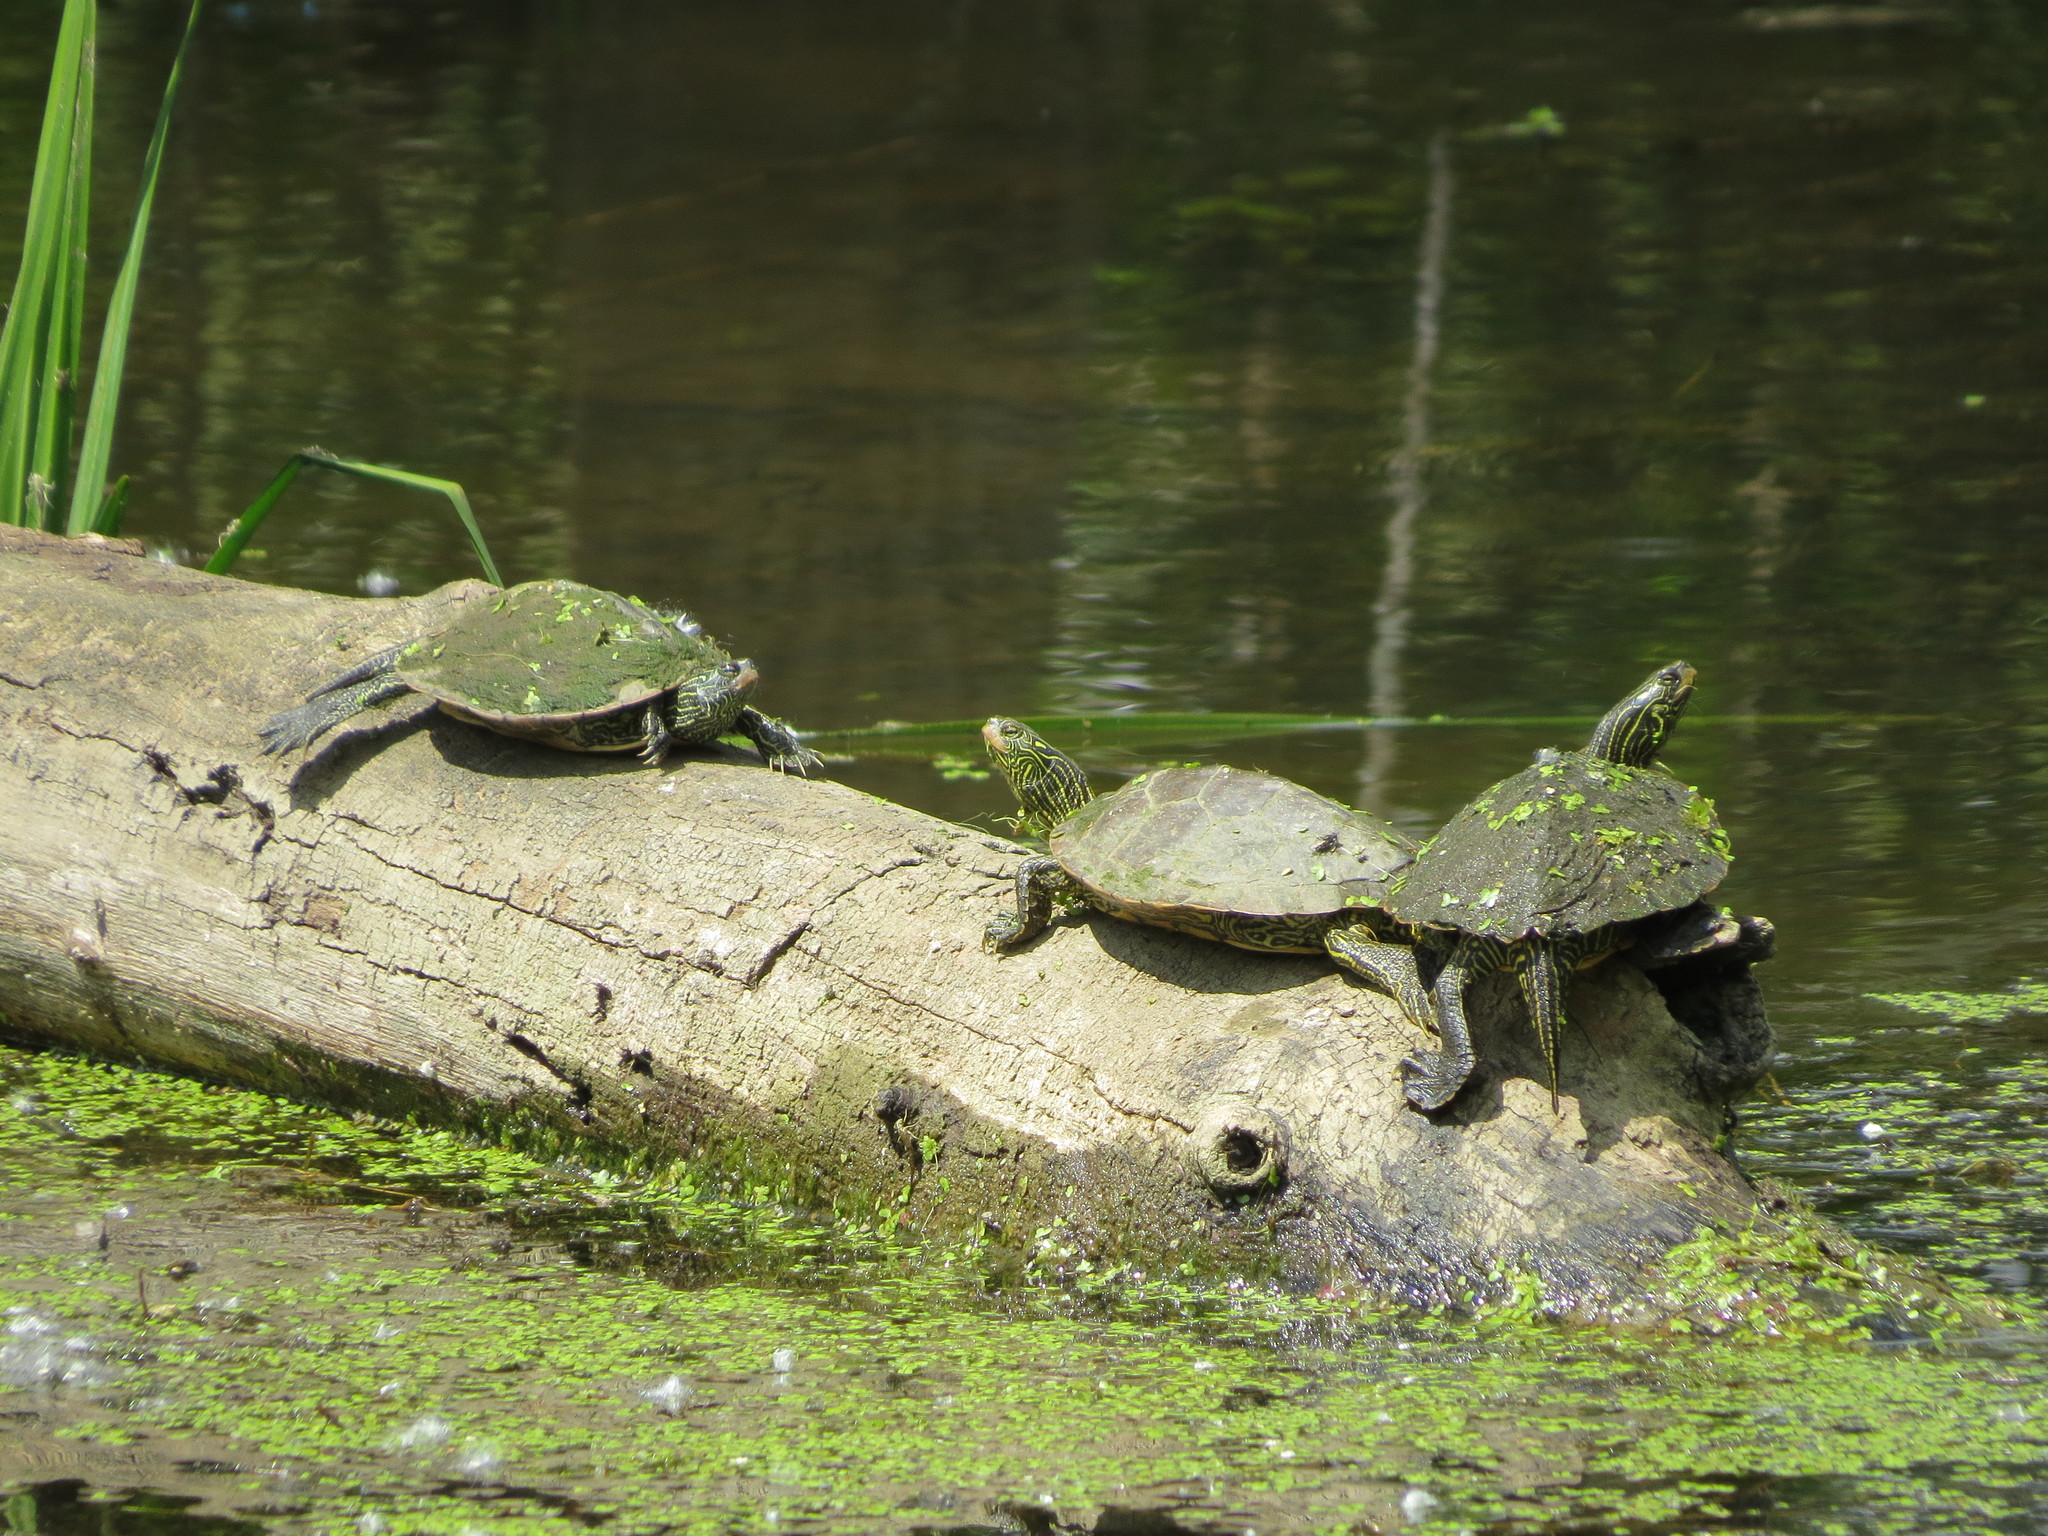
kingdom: Animalia
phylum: Chordata
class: Testudines
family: Emydidae
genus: Graptemys
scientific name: Graptemys geographica
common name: Common map turtle
